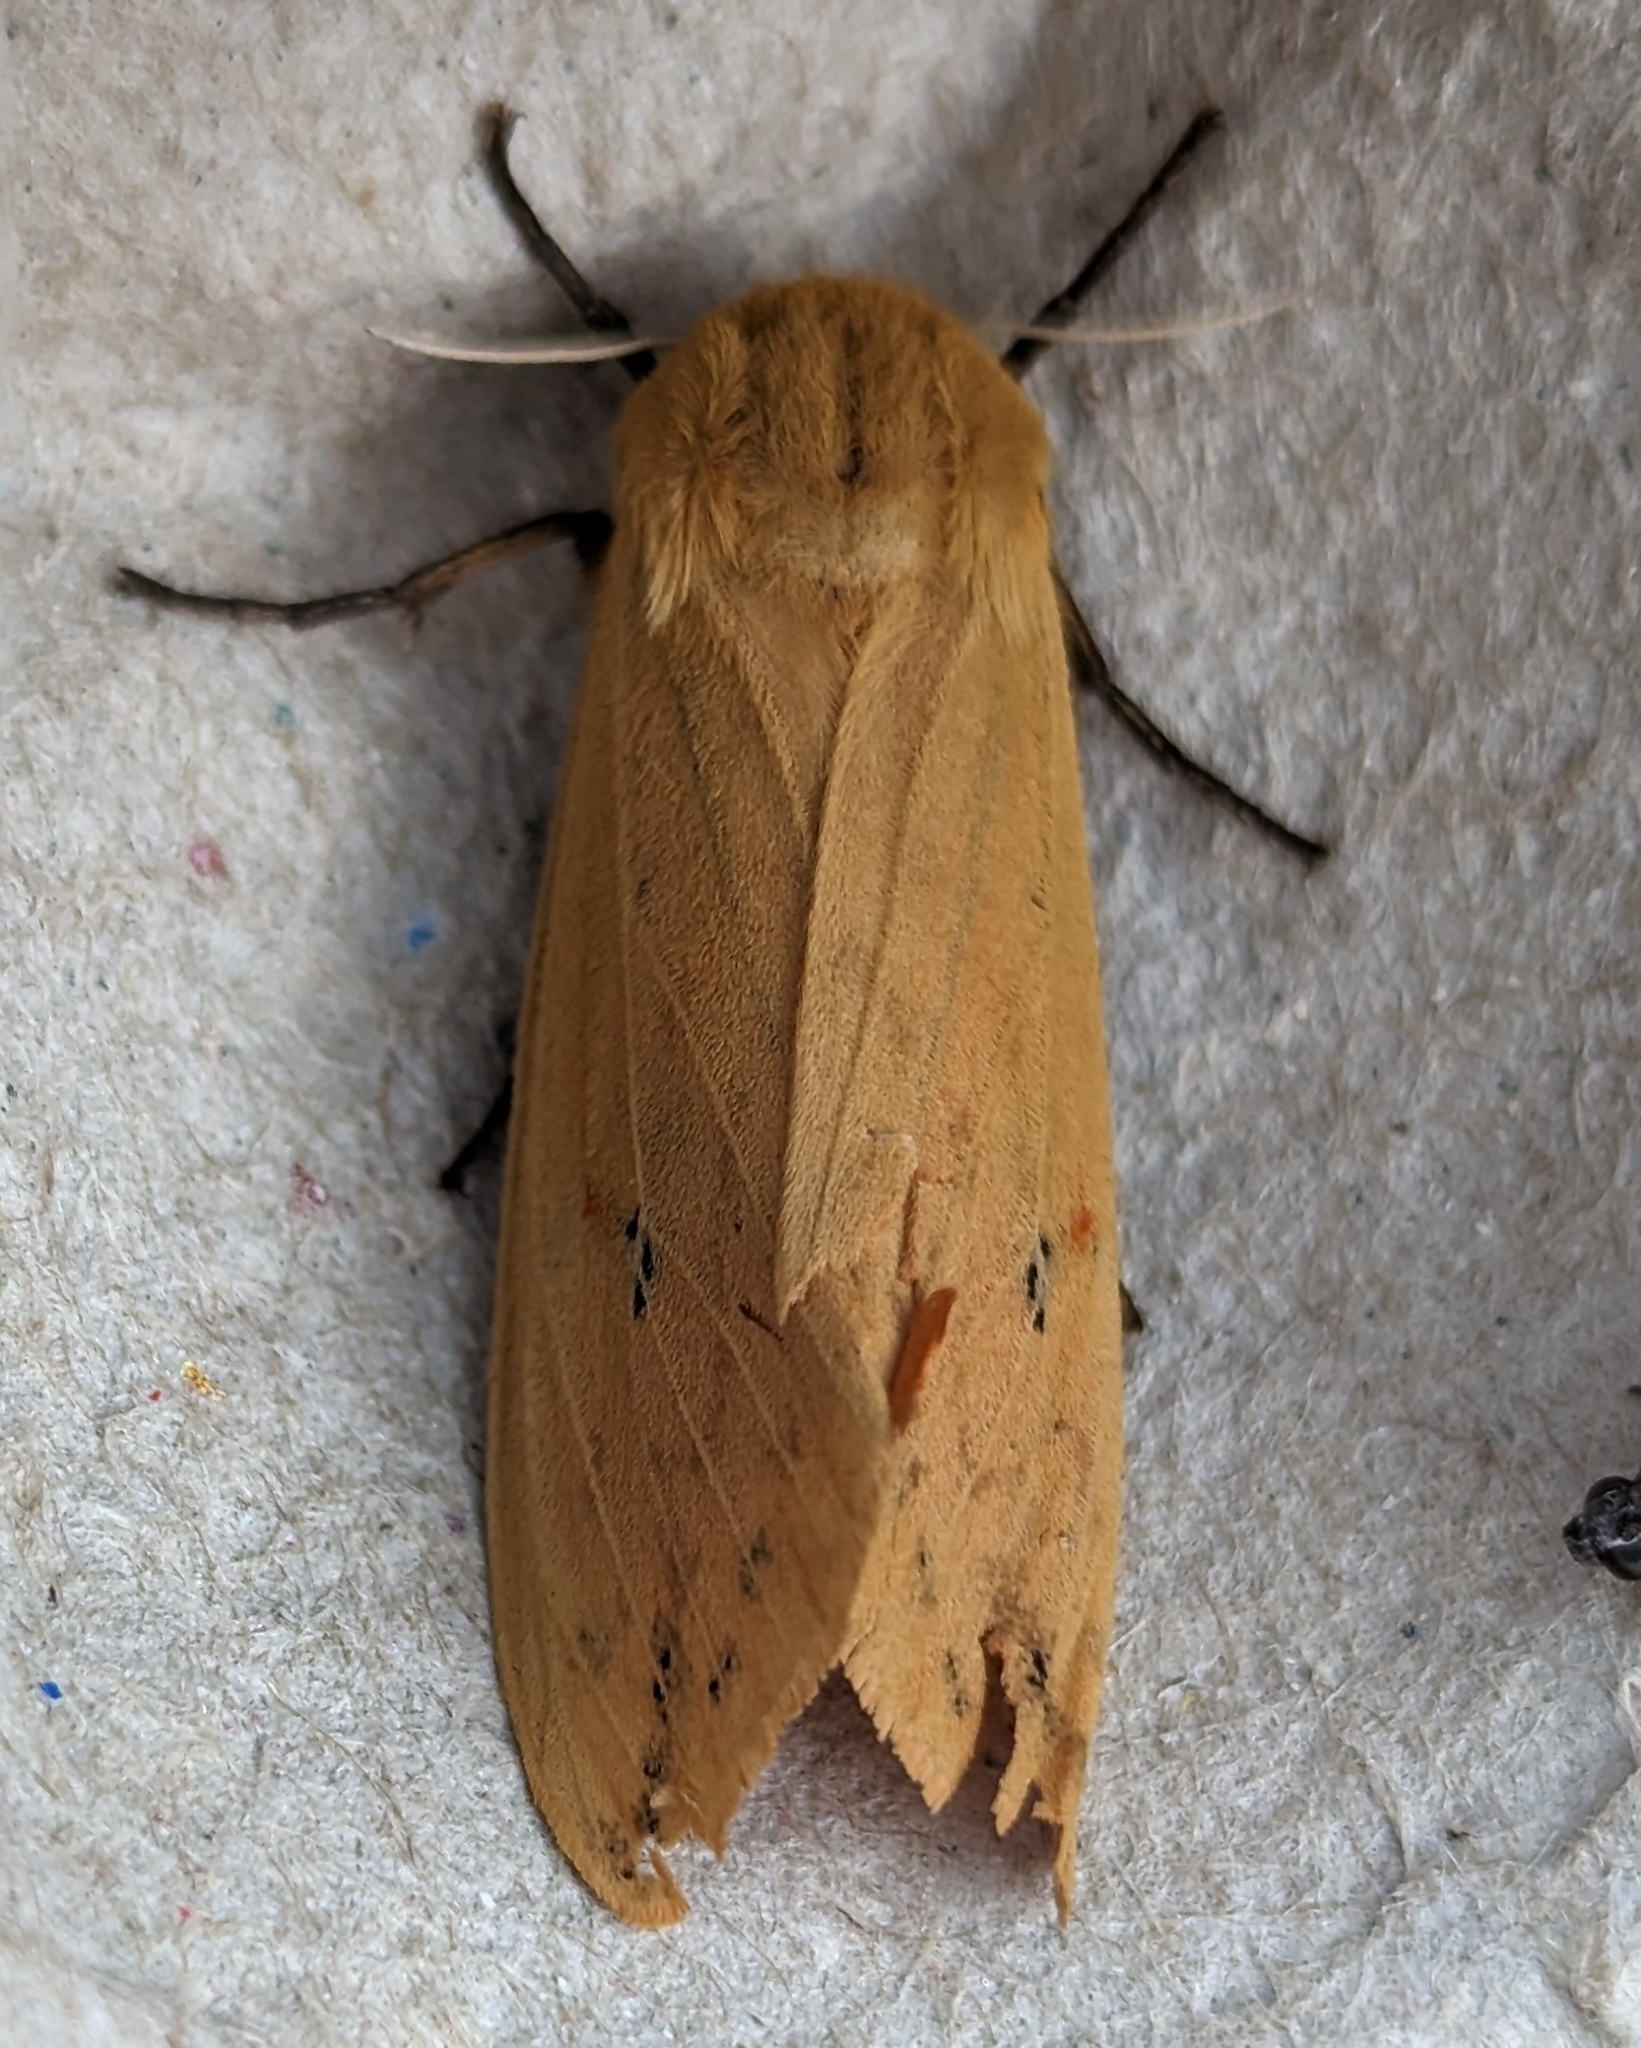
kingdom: Animalia
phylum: Arthropoda
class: Insecta
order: Lepidoptera
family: Erebidae
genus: Pyrrharctia
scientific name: Pyrrharctia isabella
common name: Isabella tiger moth
